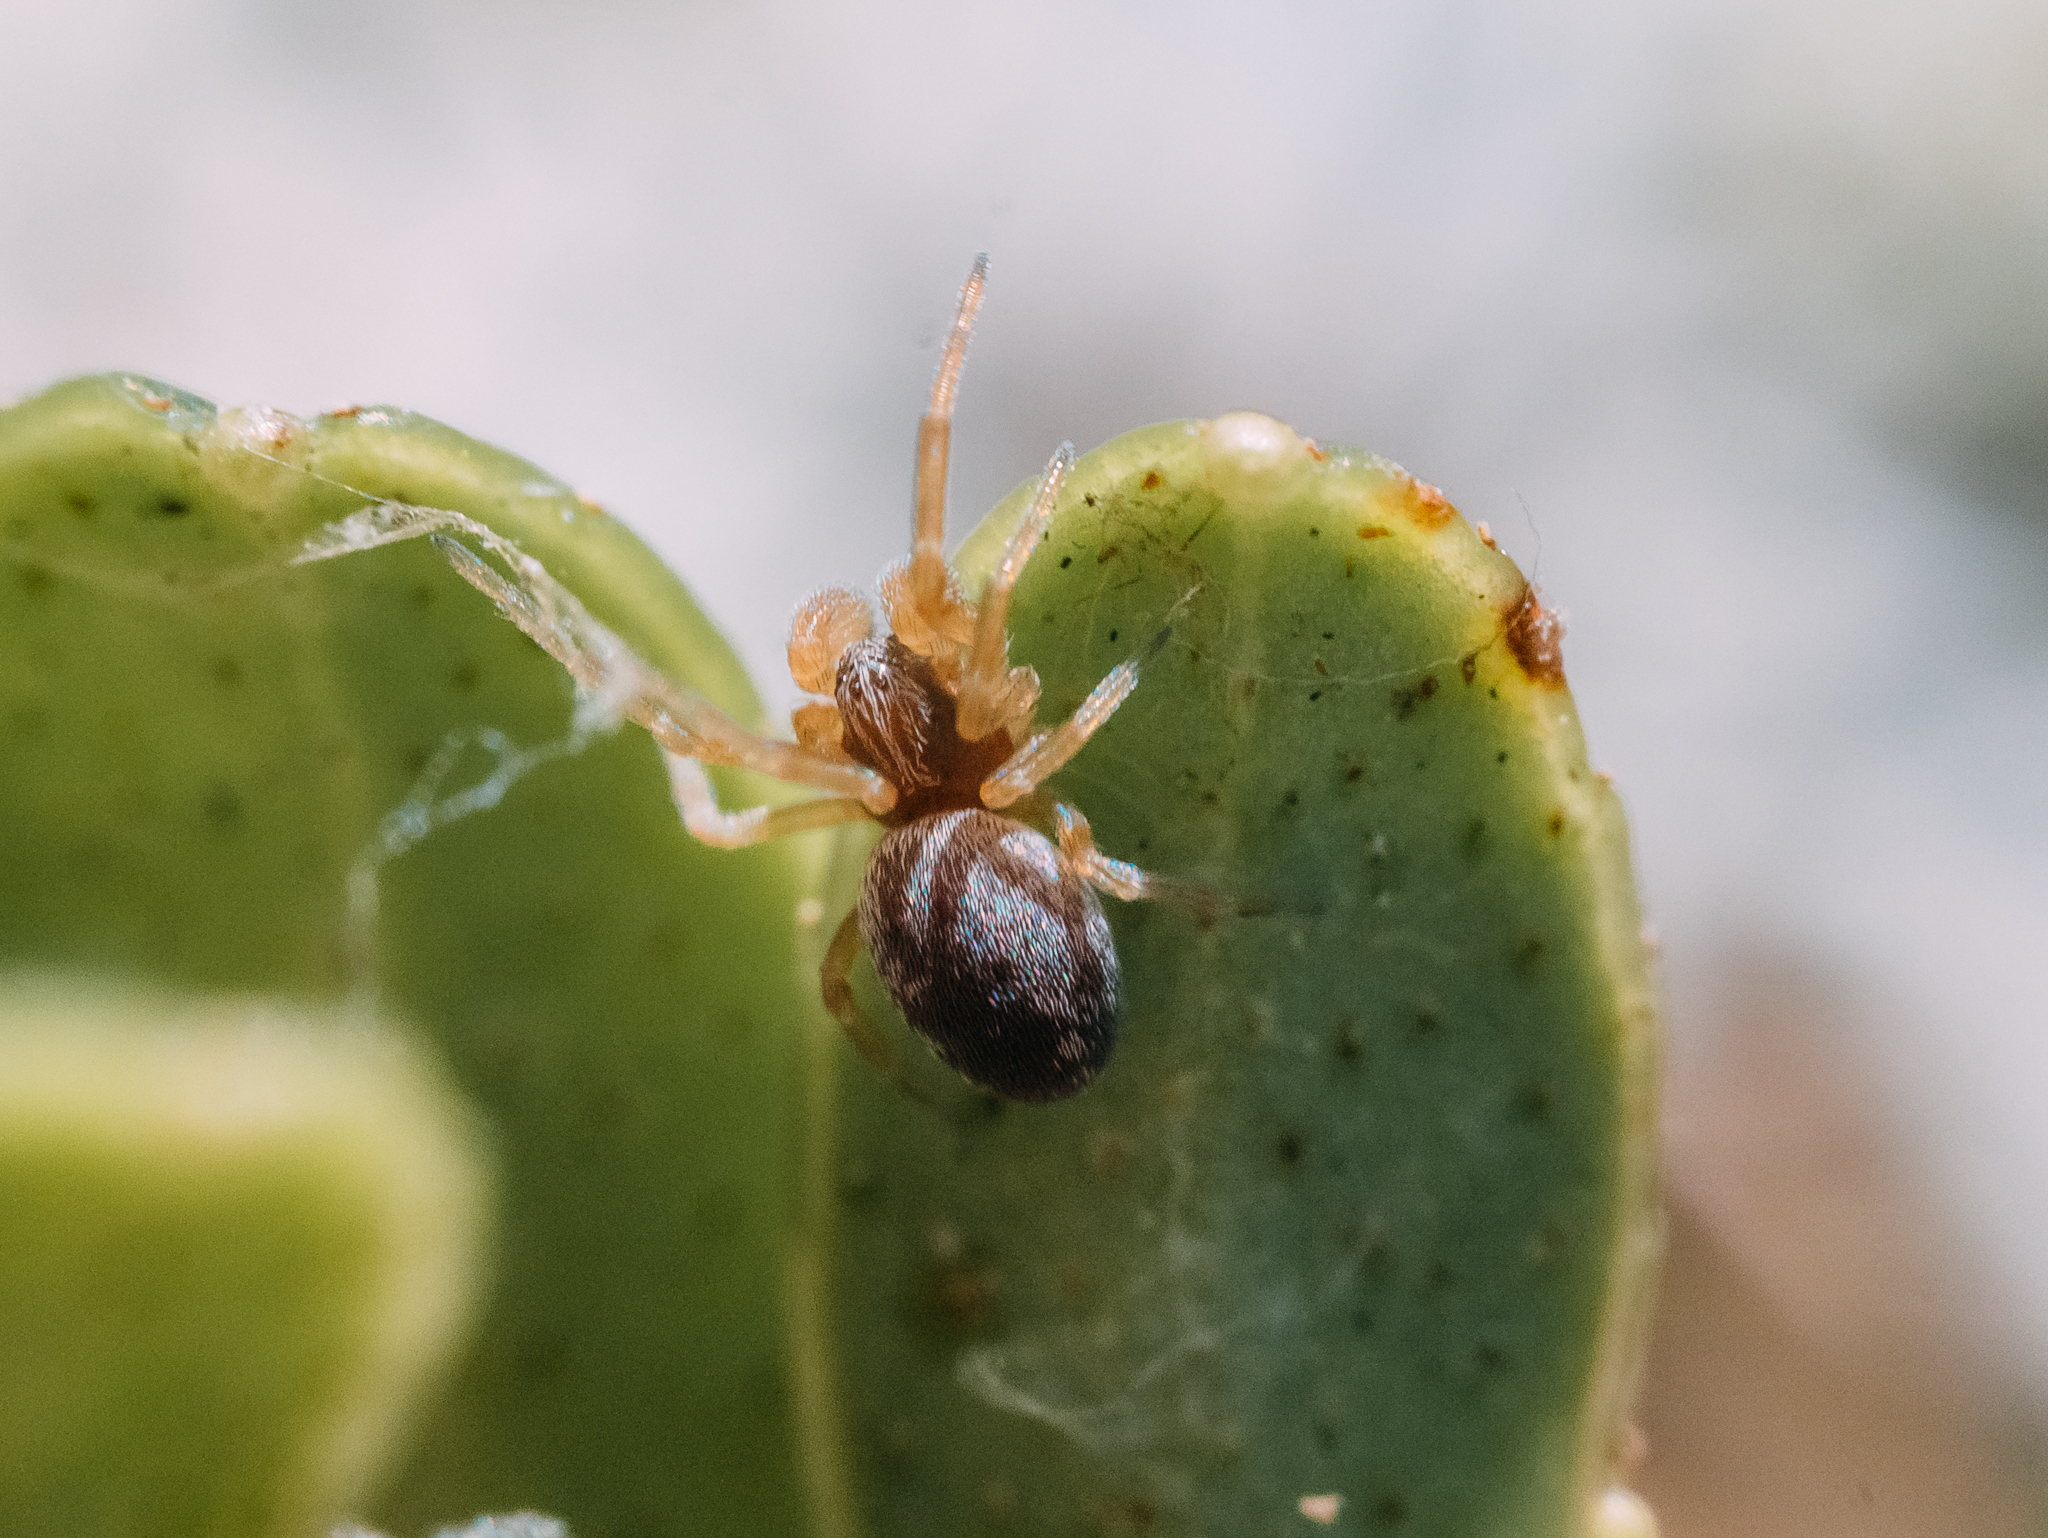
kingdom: Animalia
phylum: Arthropoda
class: Arachnida
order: Araneae
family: Dictynidae
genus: Dictyna
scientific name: Dictyna arundinacea
